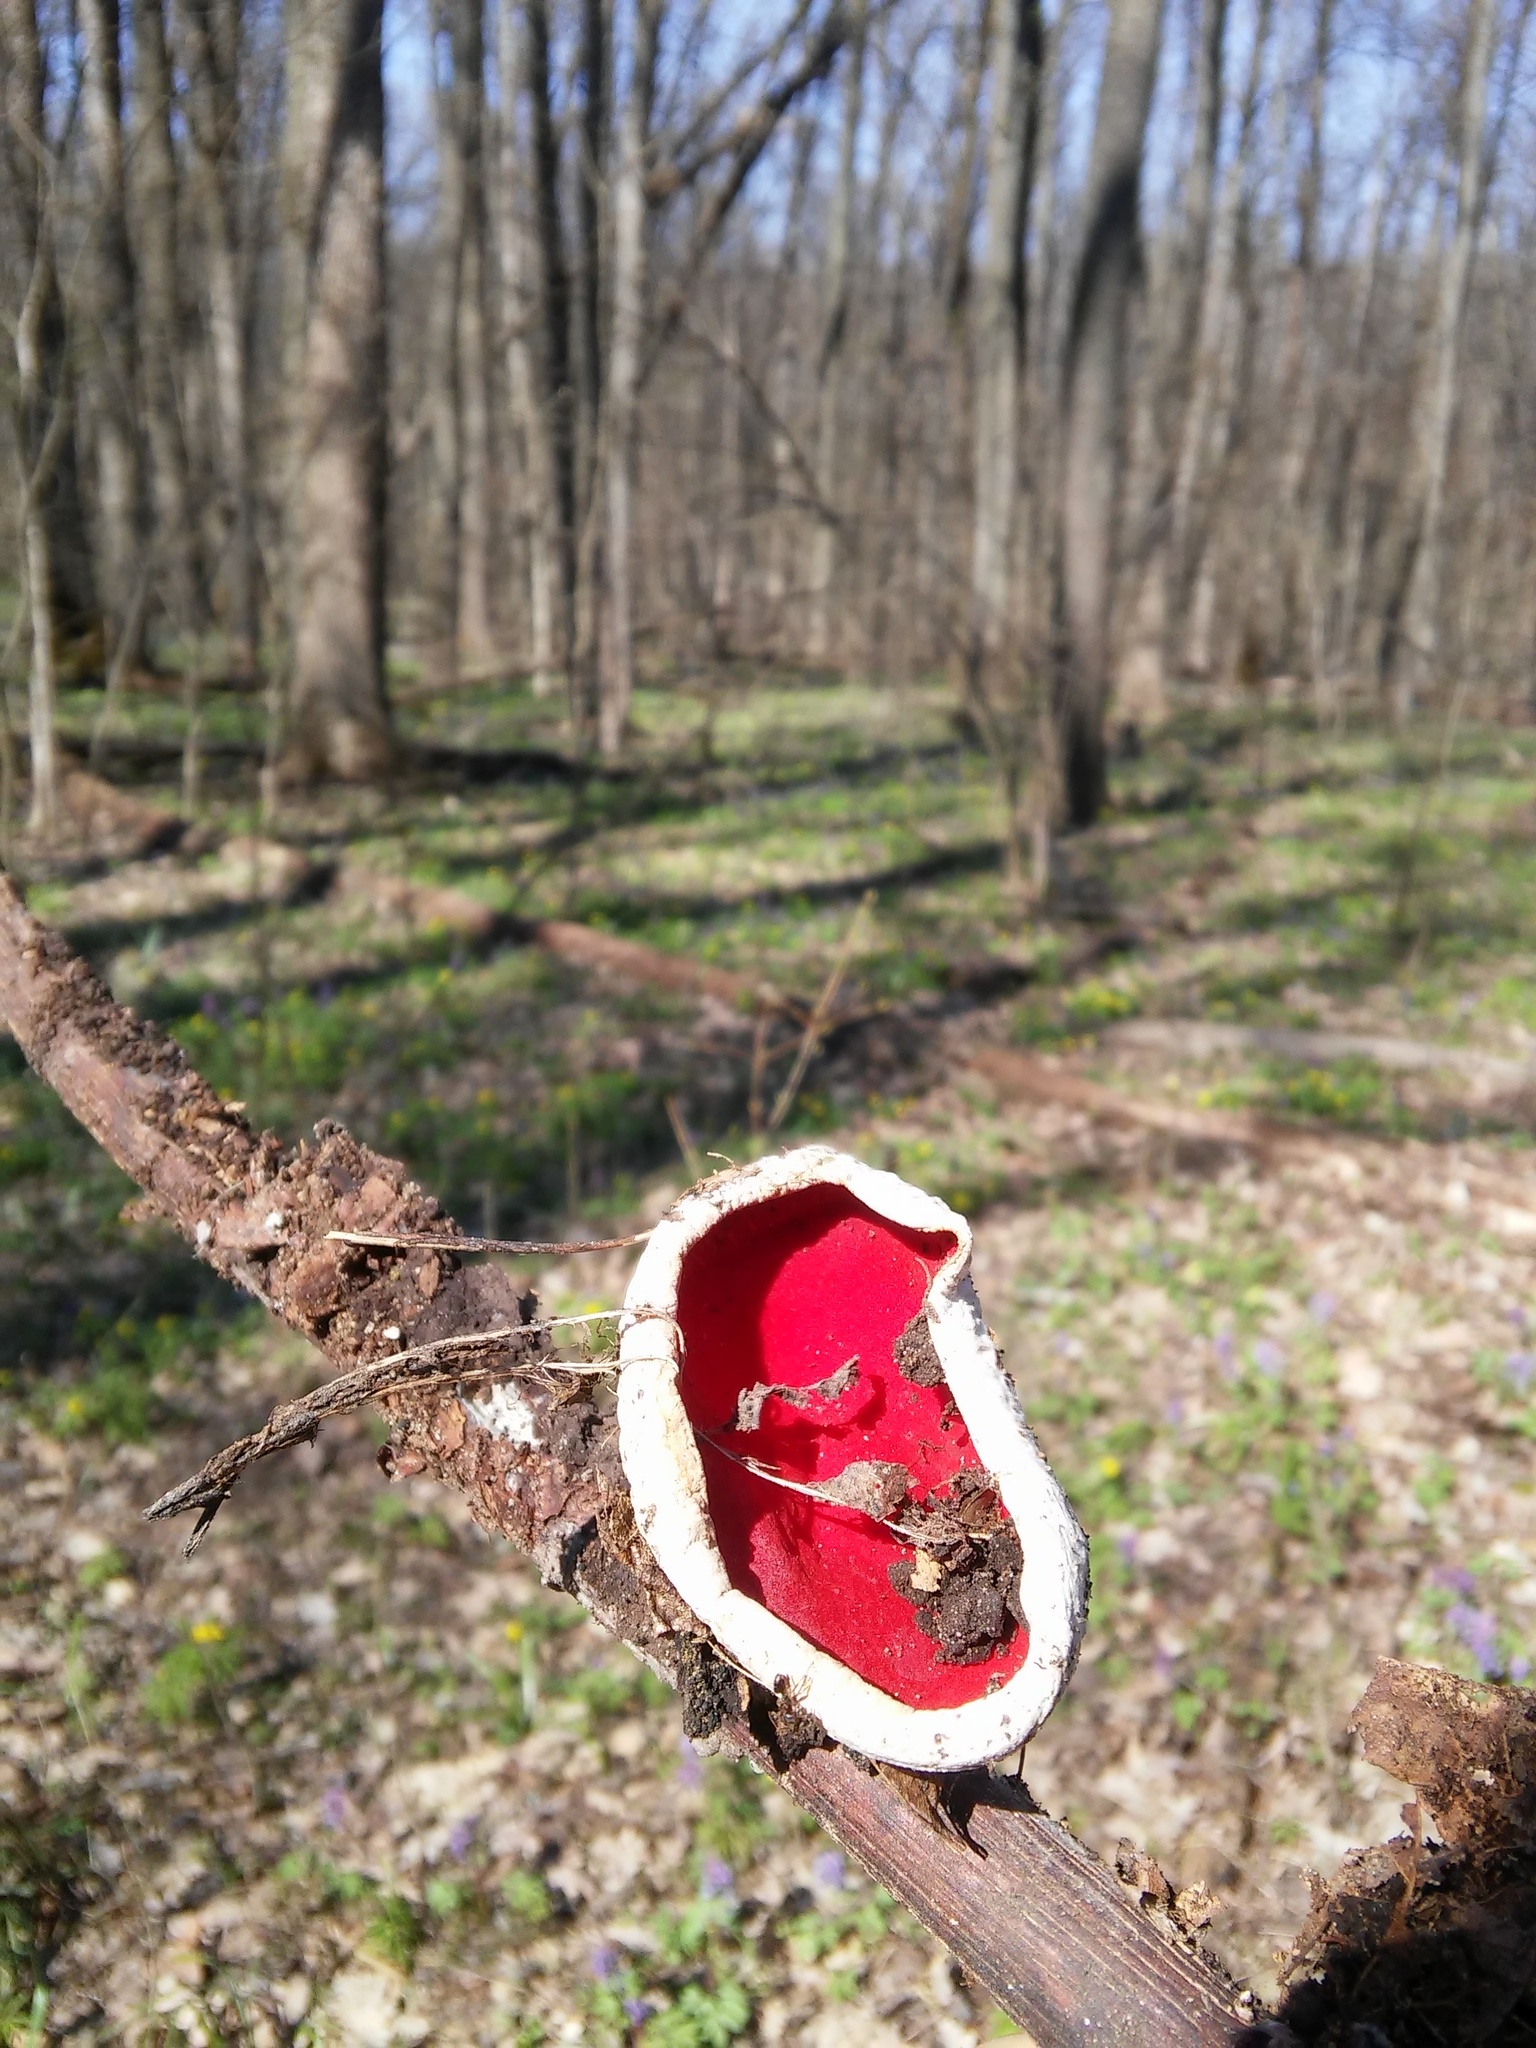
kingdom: Fungi
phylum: Ascomycota
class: Pezizomycetes
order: Pezizales
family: Sarcoscyphaceae
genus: Sarcoscypha
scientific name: Sarcoscypha austriaca
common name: Scarlet elfcup
